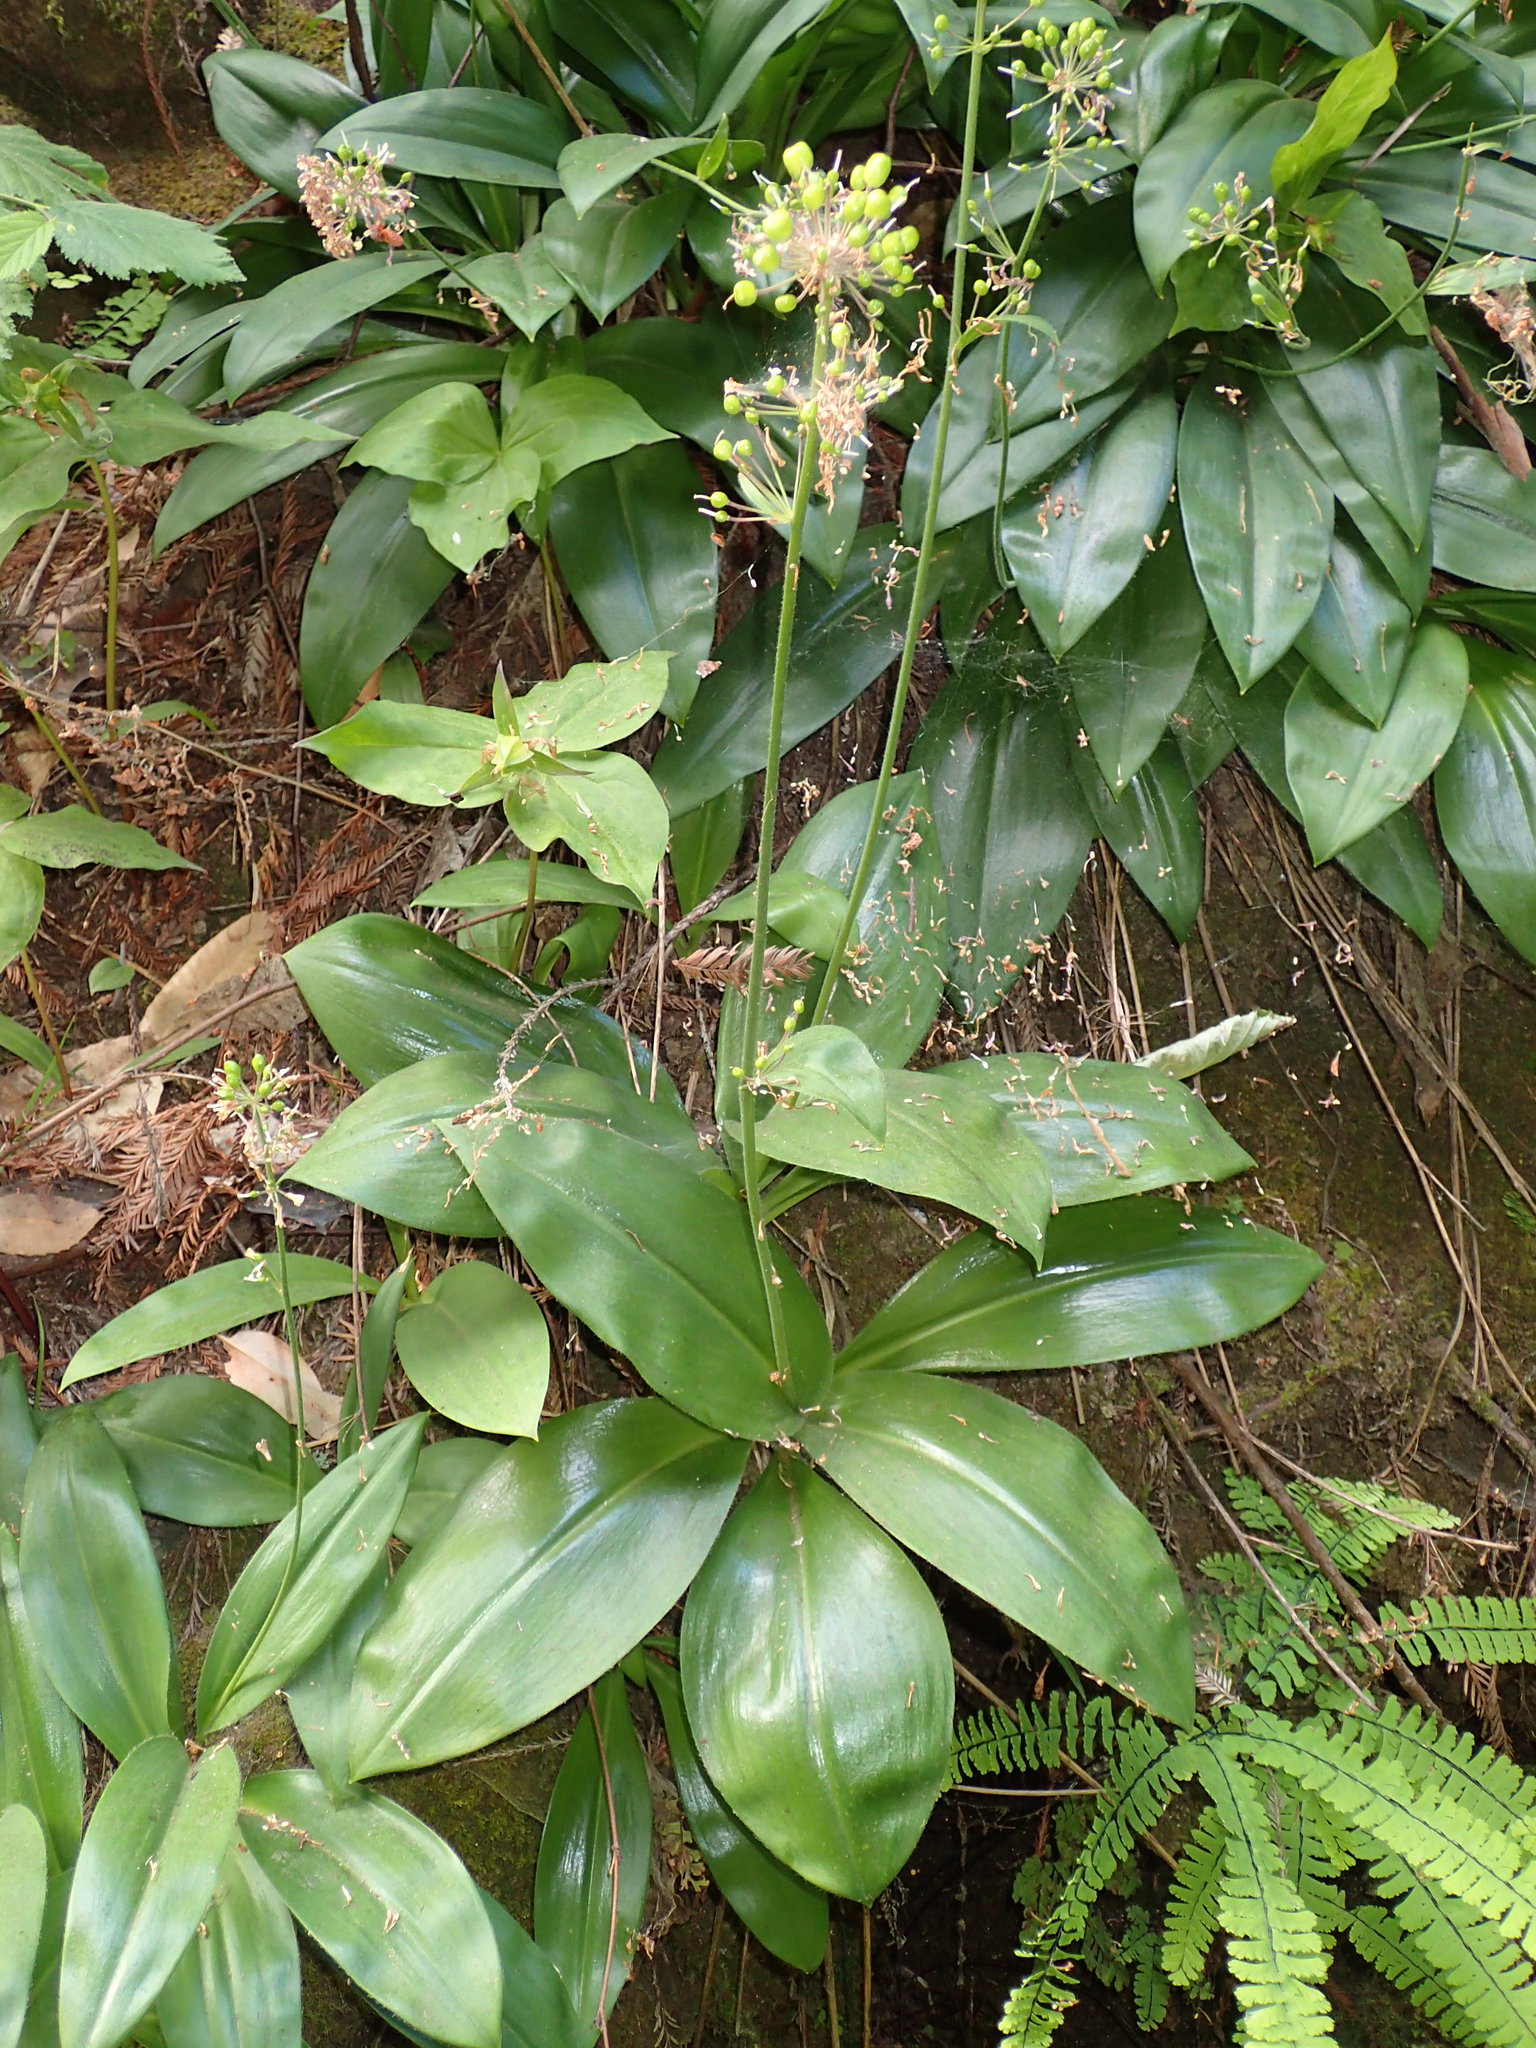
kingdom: Plantae
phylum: Tracheophyta
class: Liliopsida
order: Liliales
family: Liliaceae
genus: Clintonia
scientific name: Clintonia andrewsiana
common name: Red clintonia
